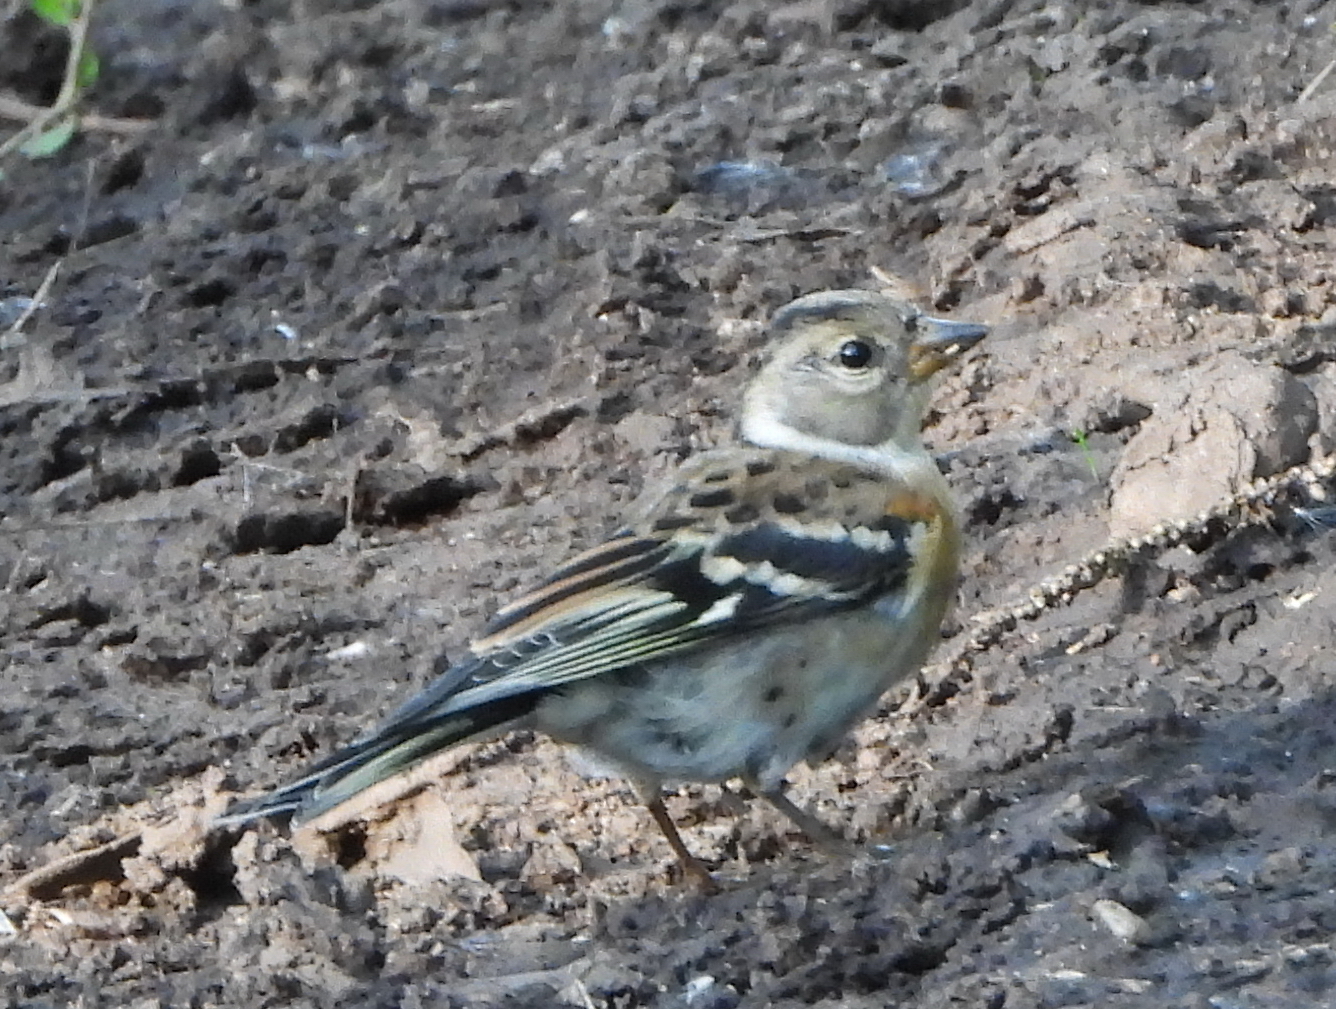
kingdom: Animalia
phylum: Chordata
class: Aves
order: Passeriformes
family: Fringillidae
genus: Fringilla
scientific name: Fringilla montifringilla
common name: Brambling
